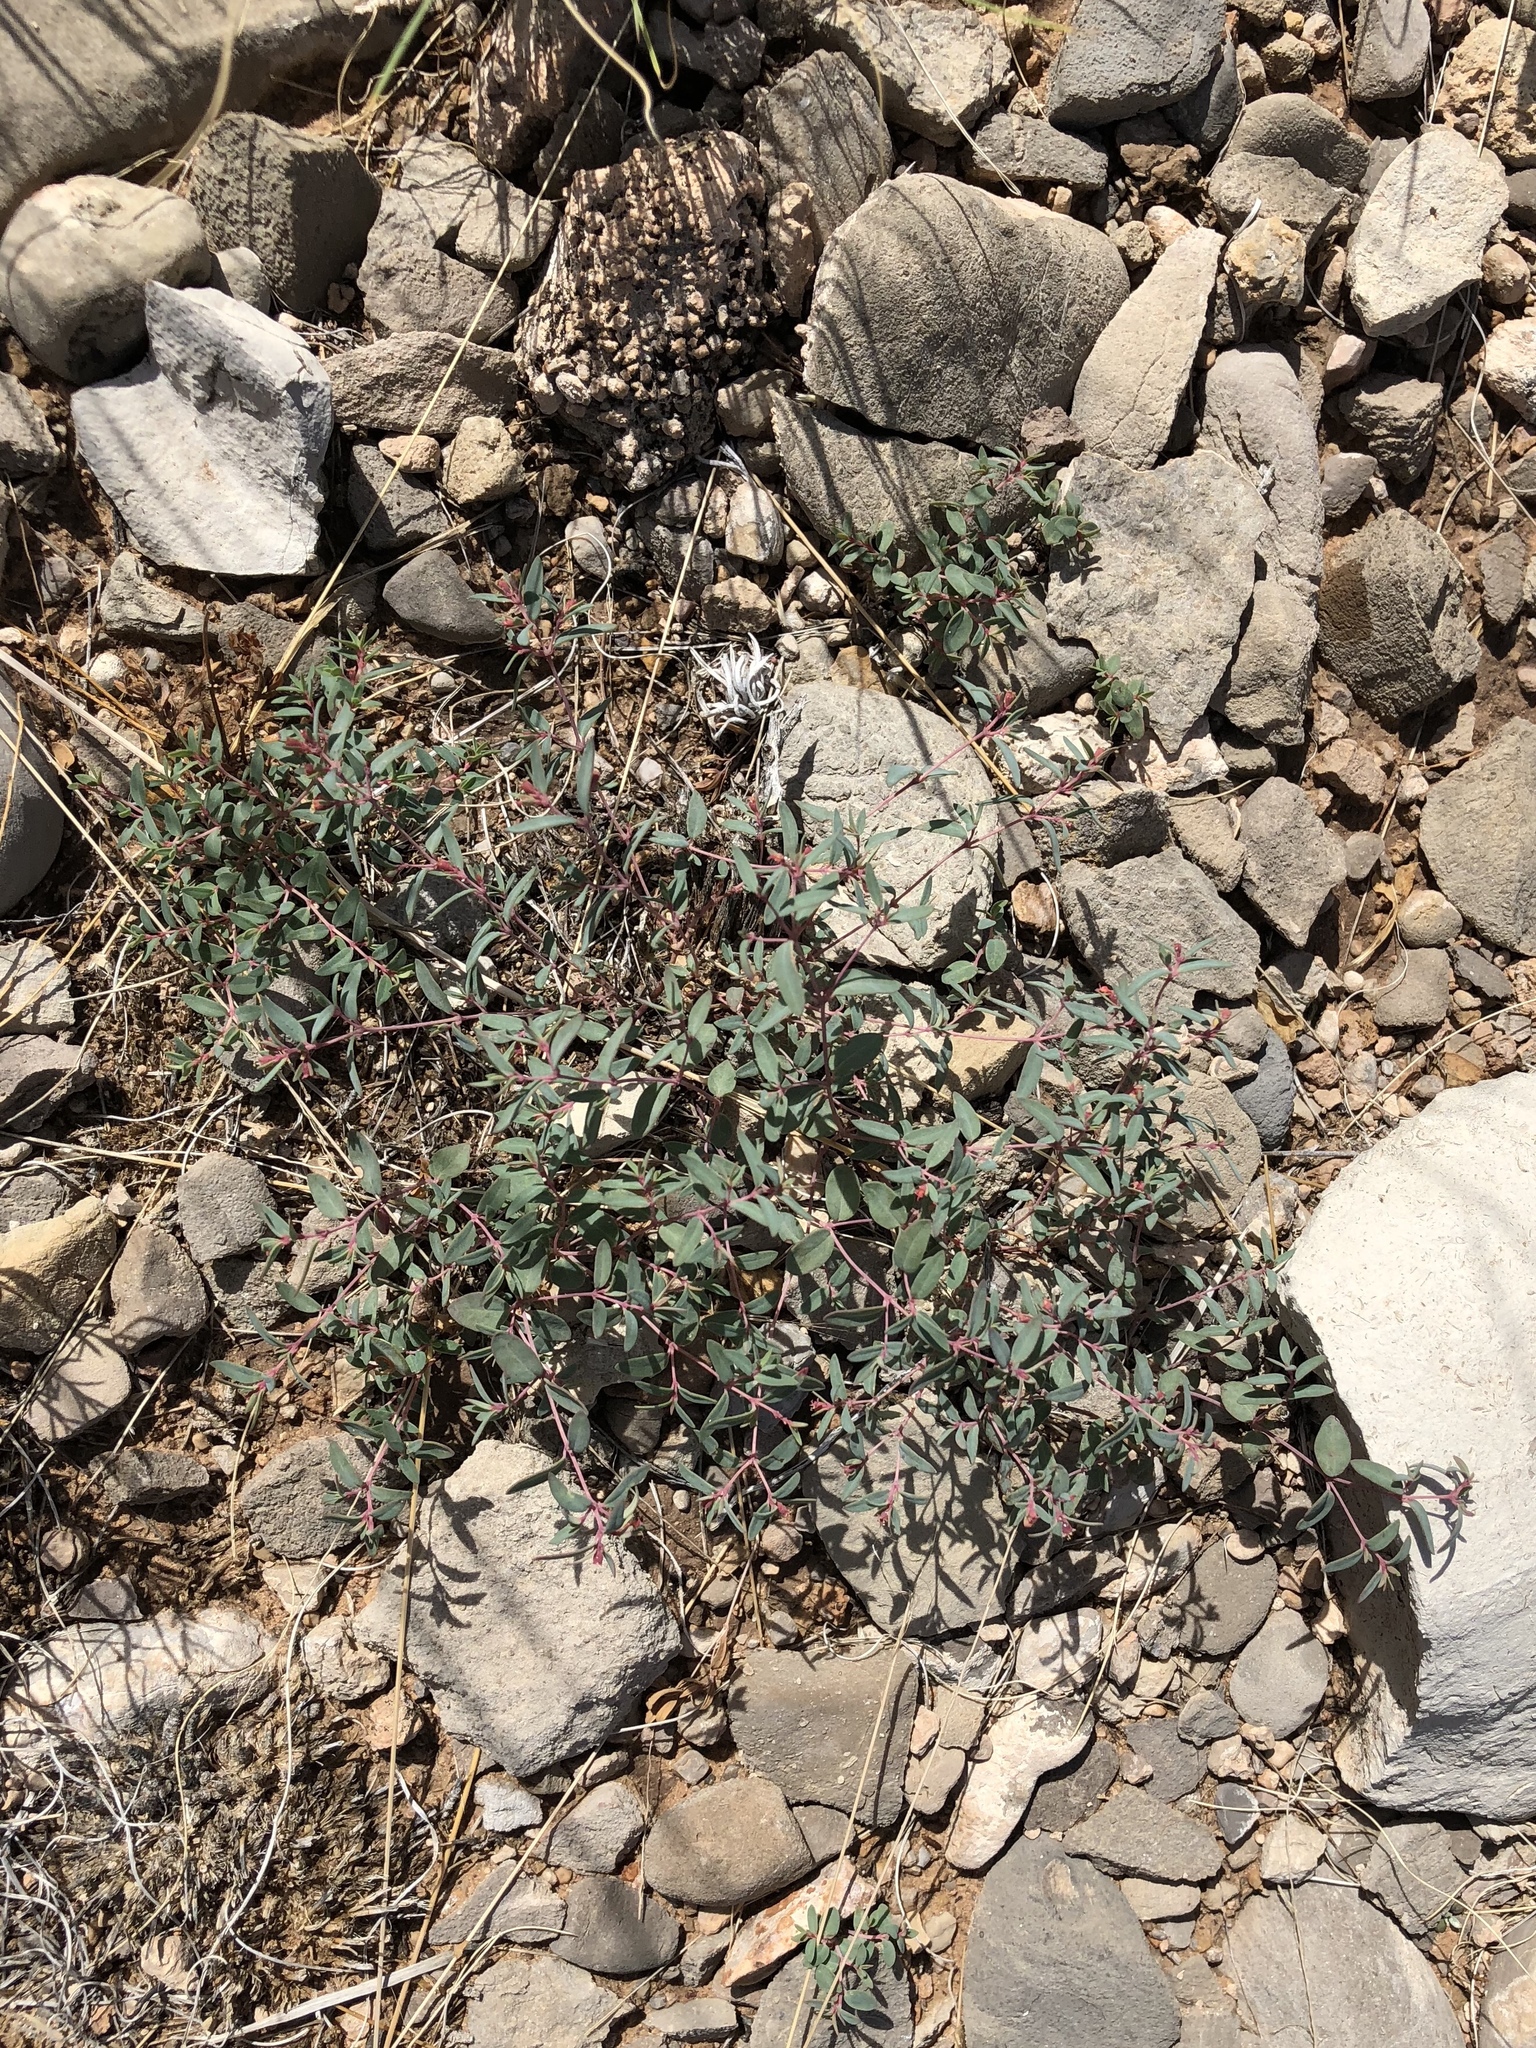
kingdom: Plantae
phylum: Tracheophyta
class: Magnoliopsida
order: Malpighiales
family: Euphorbiaceae
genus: Euphorbia
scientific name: Euphorbia chaetocalyx
